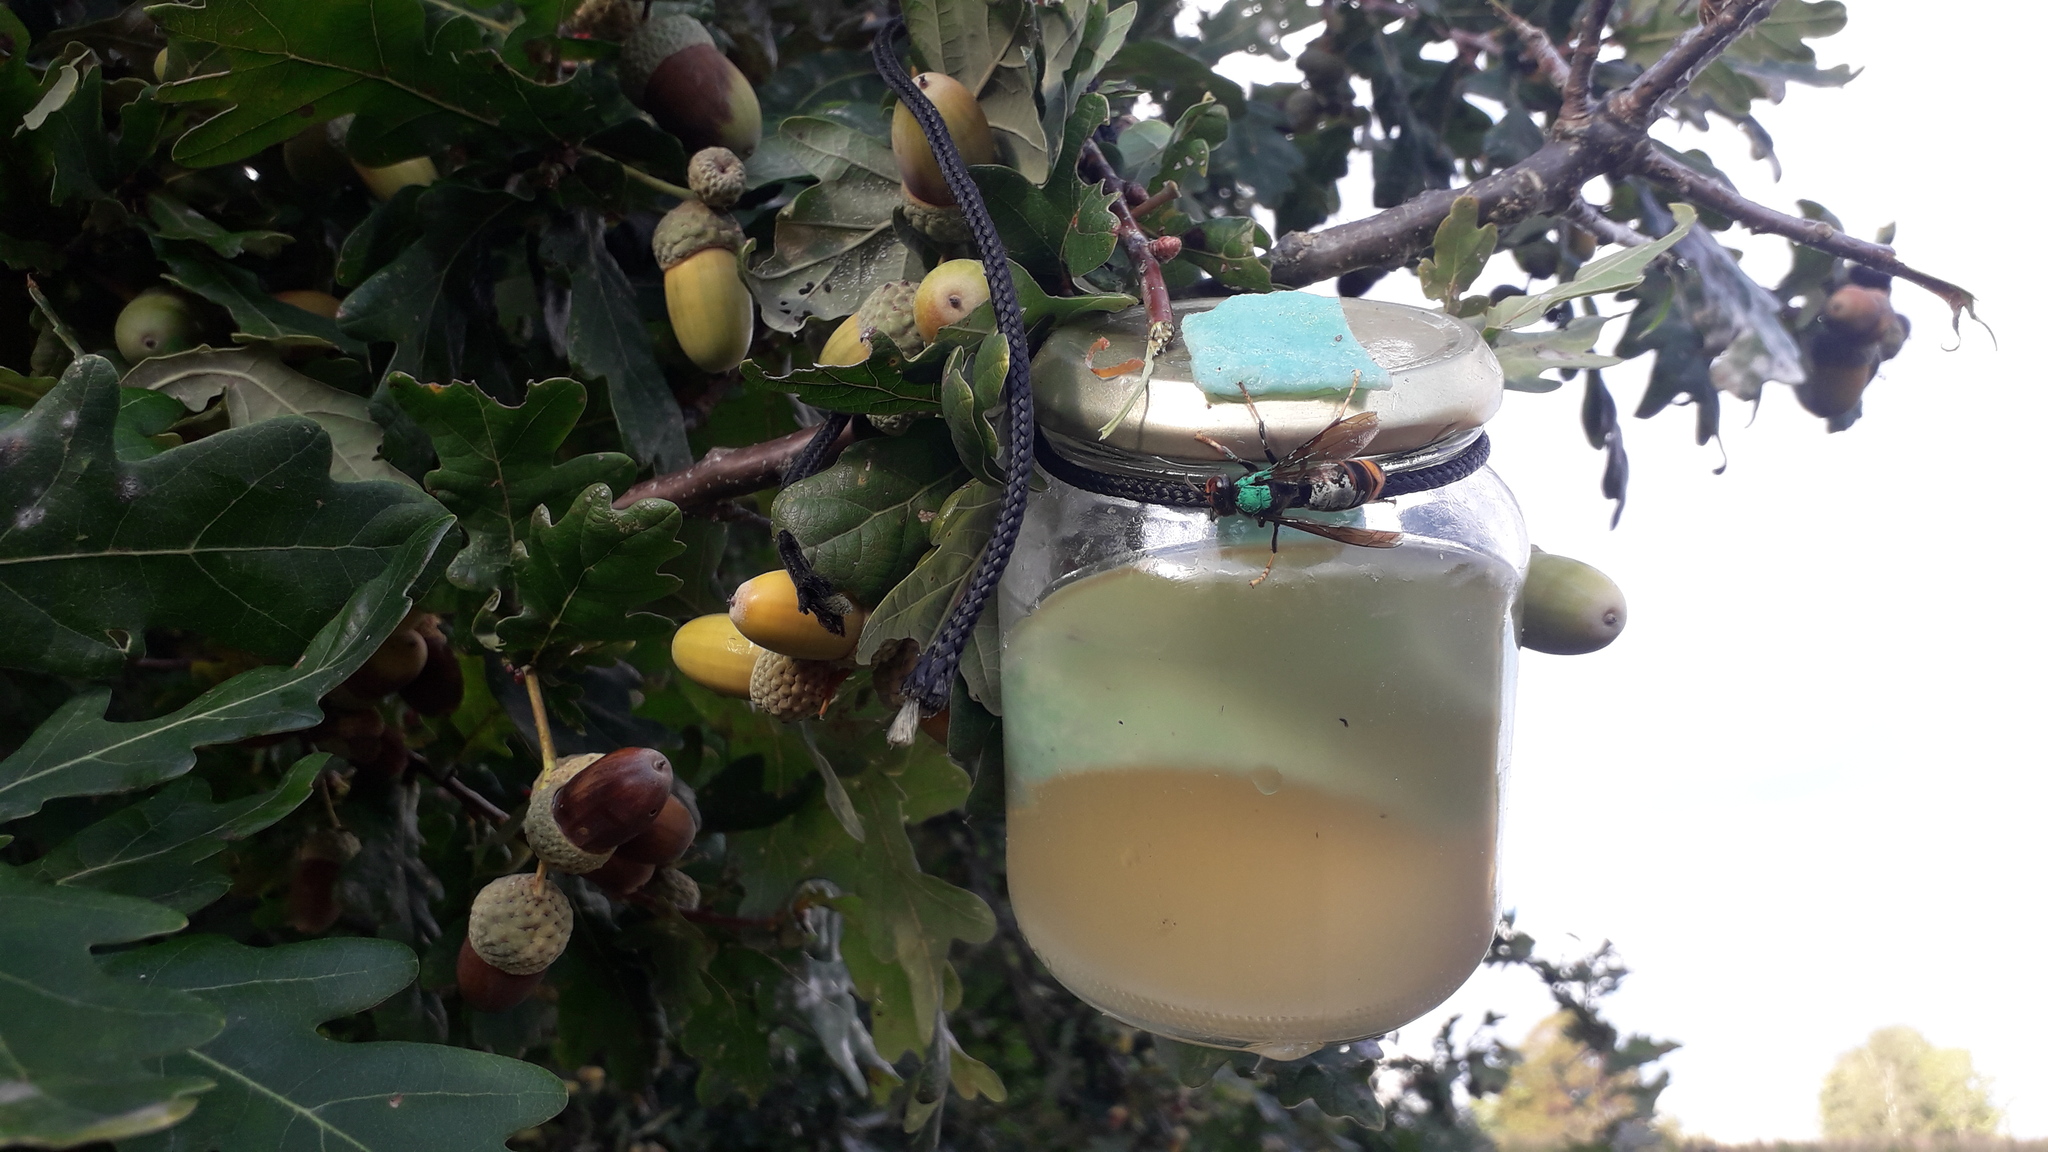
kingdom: Animalia
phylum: Arthropoda
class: Insecta
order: Hymenoptera
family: Vespidae
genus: Vespa
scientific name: Vespa velutina
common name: Asian hornet
